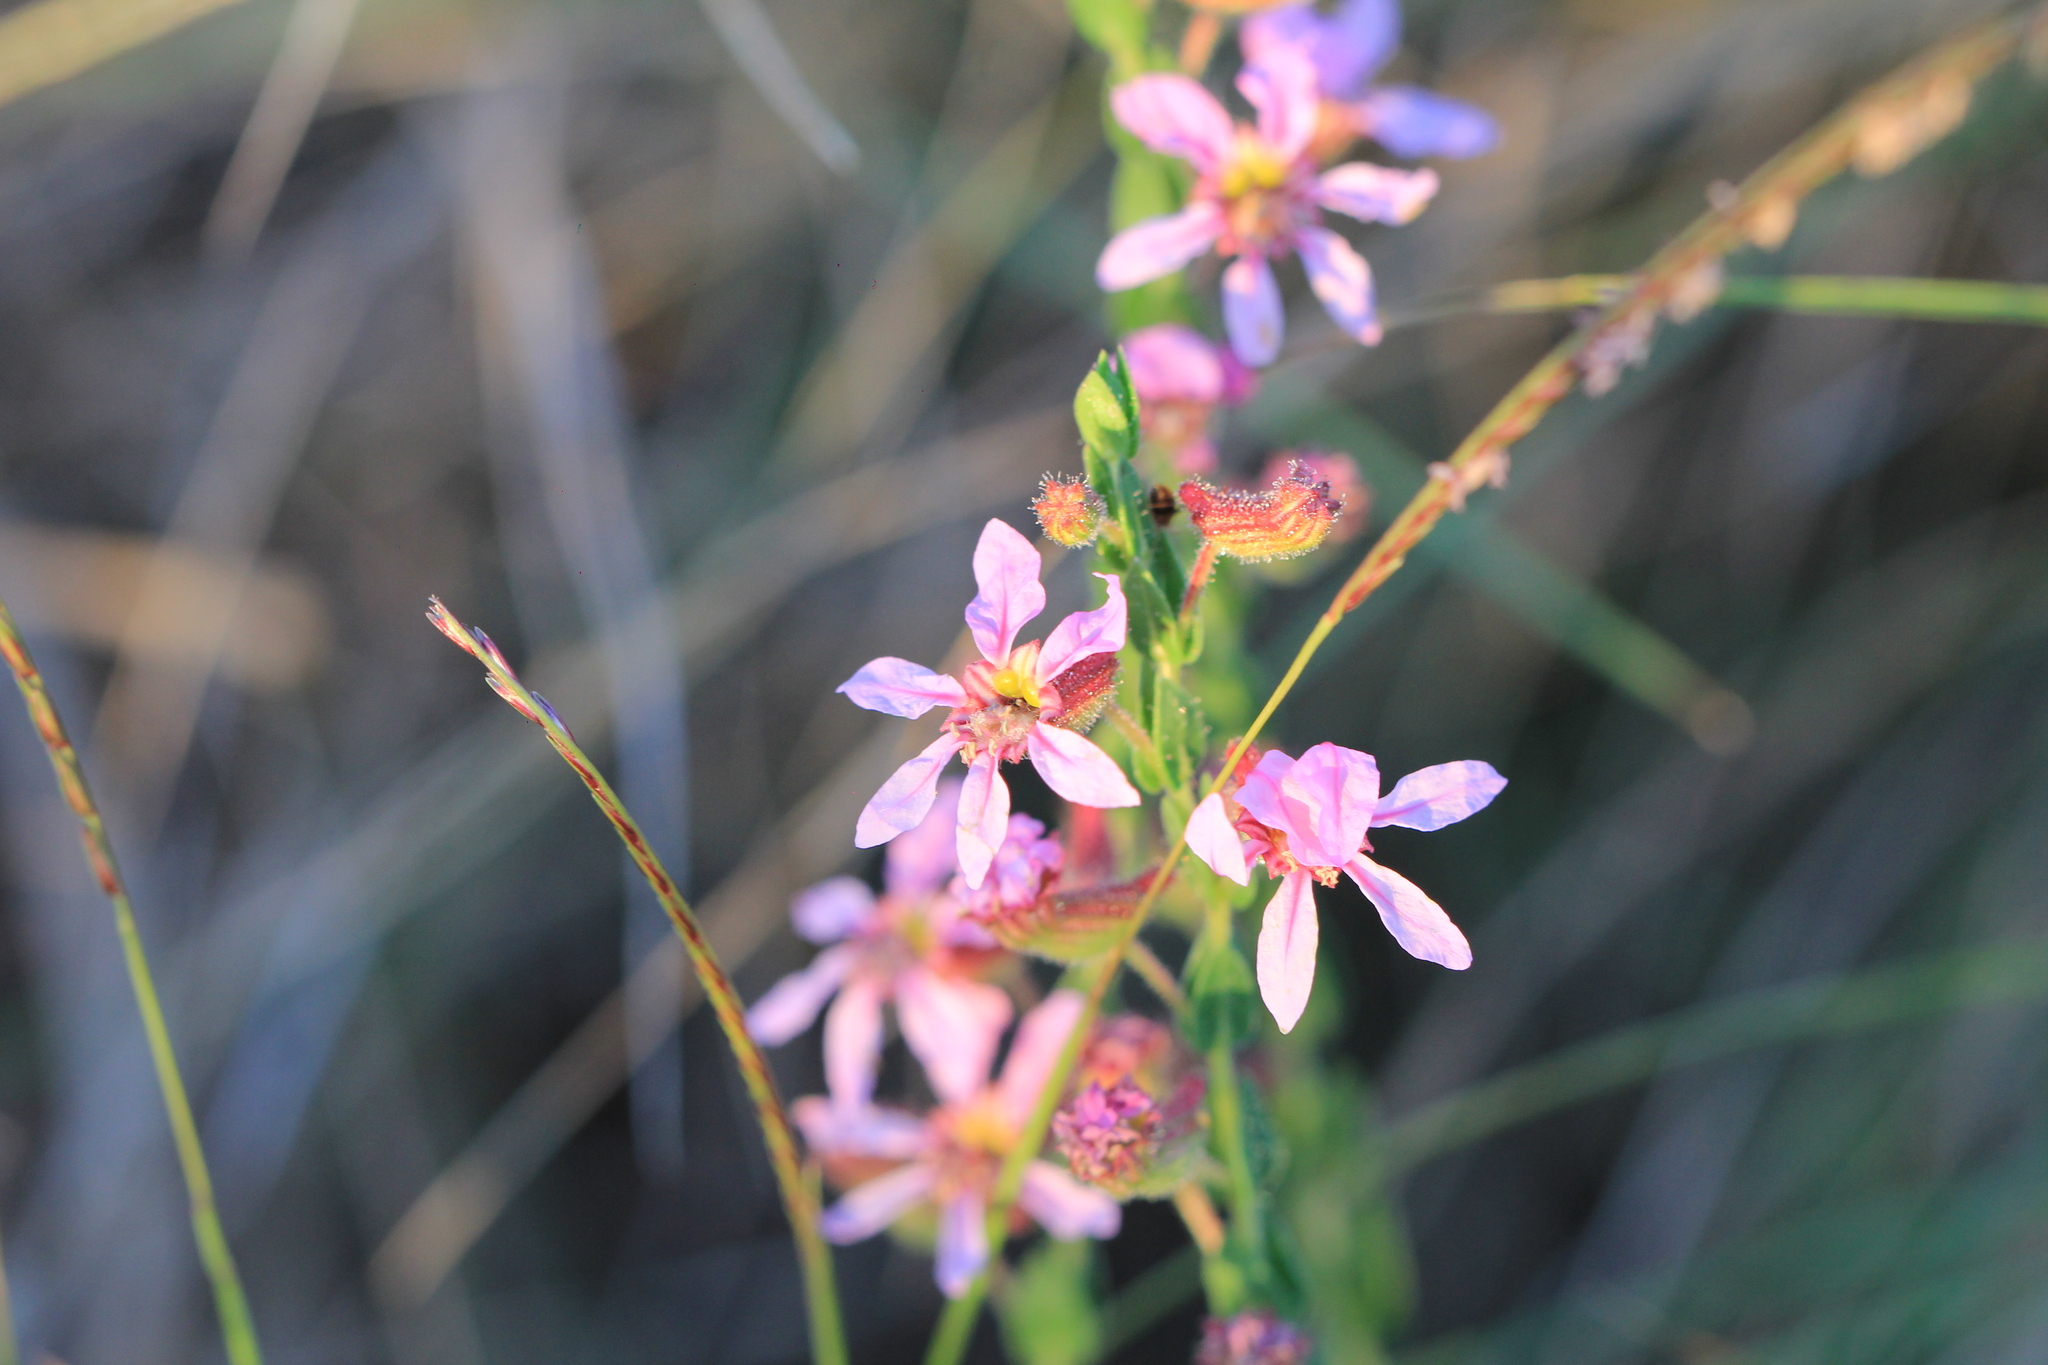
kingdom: Plantae
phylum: Tracheophyta
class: Magnoliopsida
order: Myrtales
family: Lythraceae
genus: Cuphea
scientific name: Cuphea linarioides
